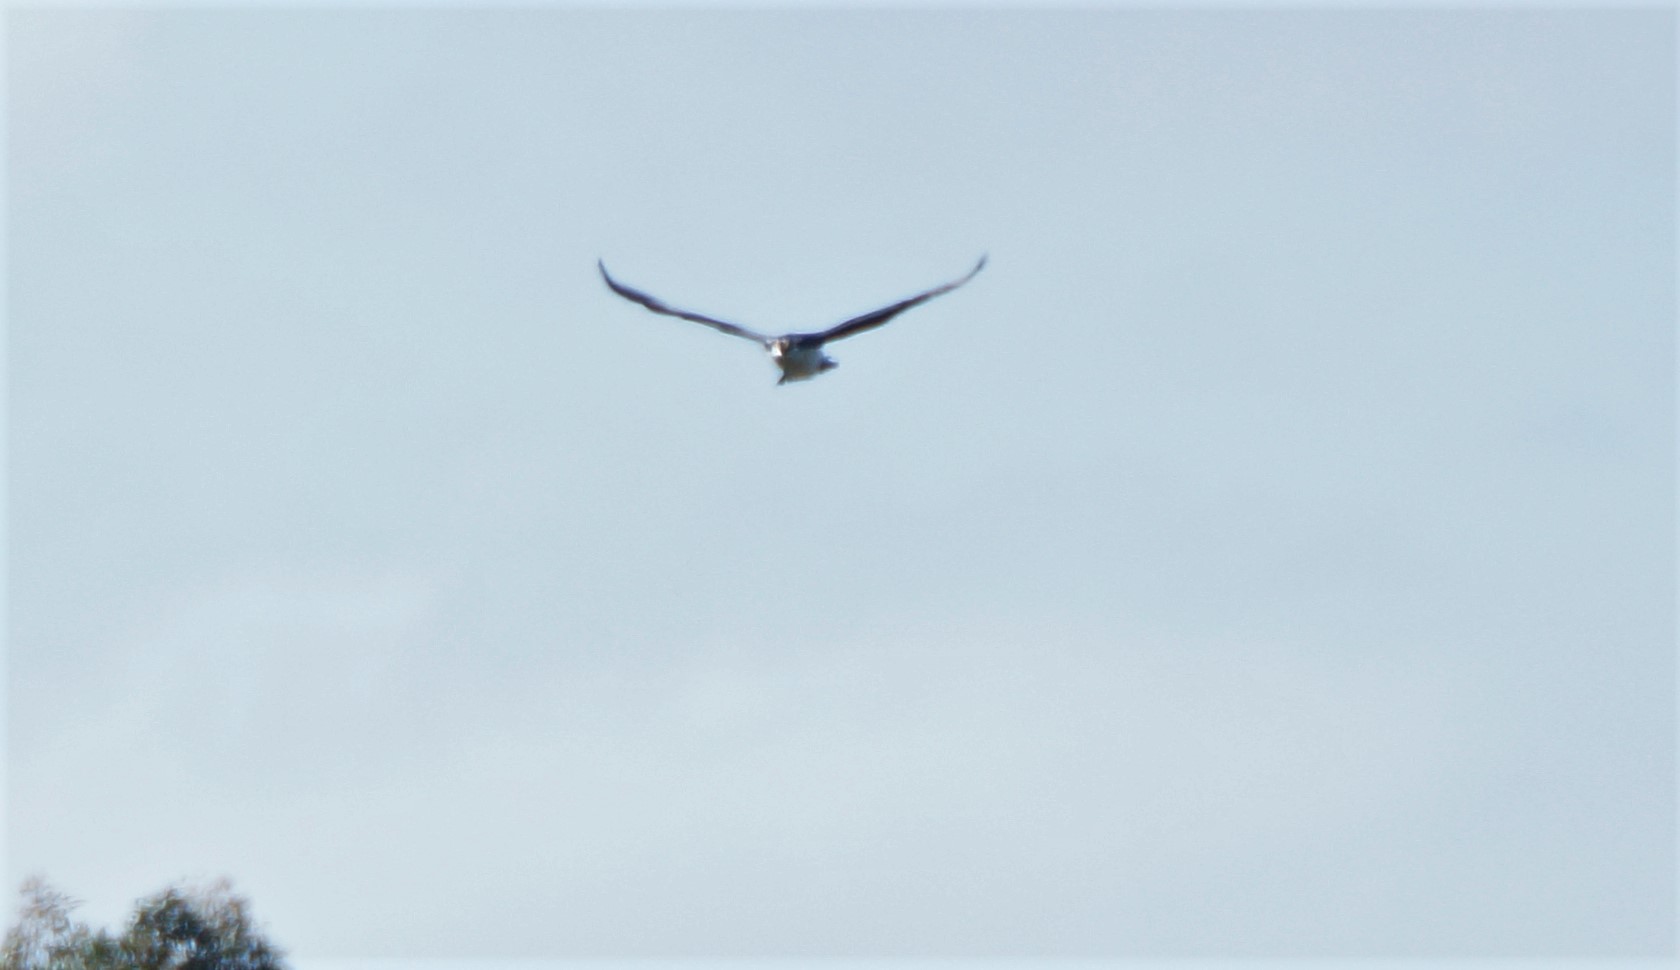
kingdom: Animalia
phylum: Chordata
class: Aves
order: Accipitriformes
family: Accipitridae
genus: Circus
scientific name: Circus approximans
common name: Swamp harrier
